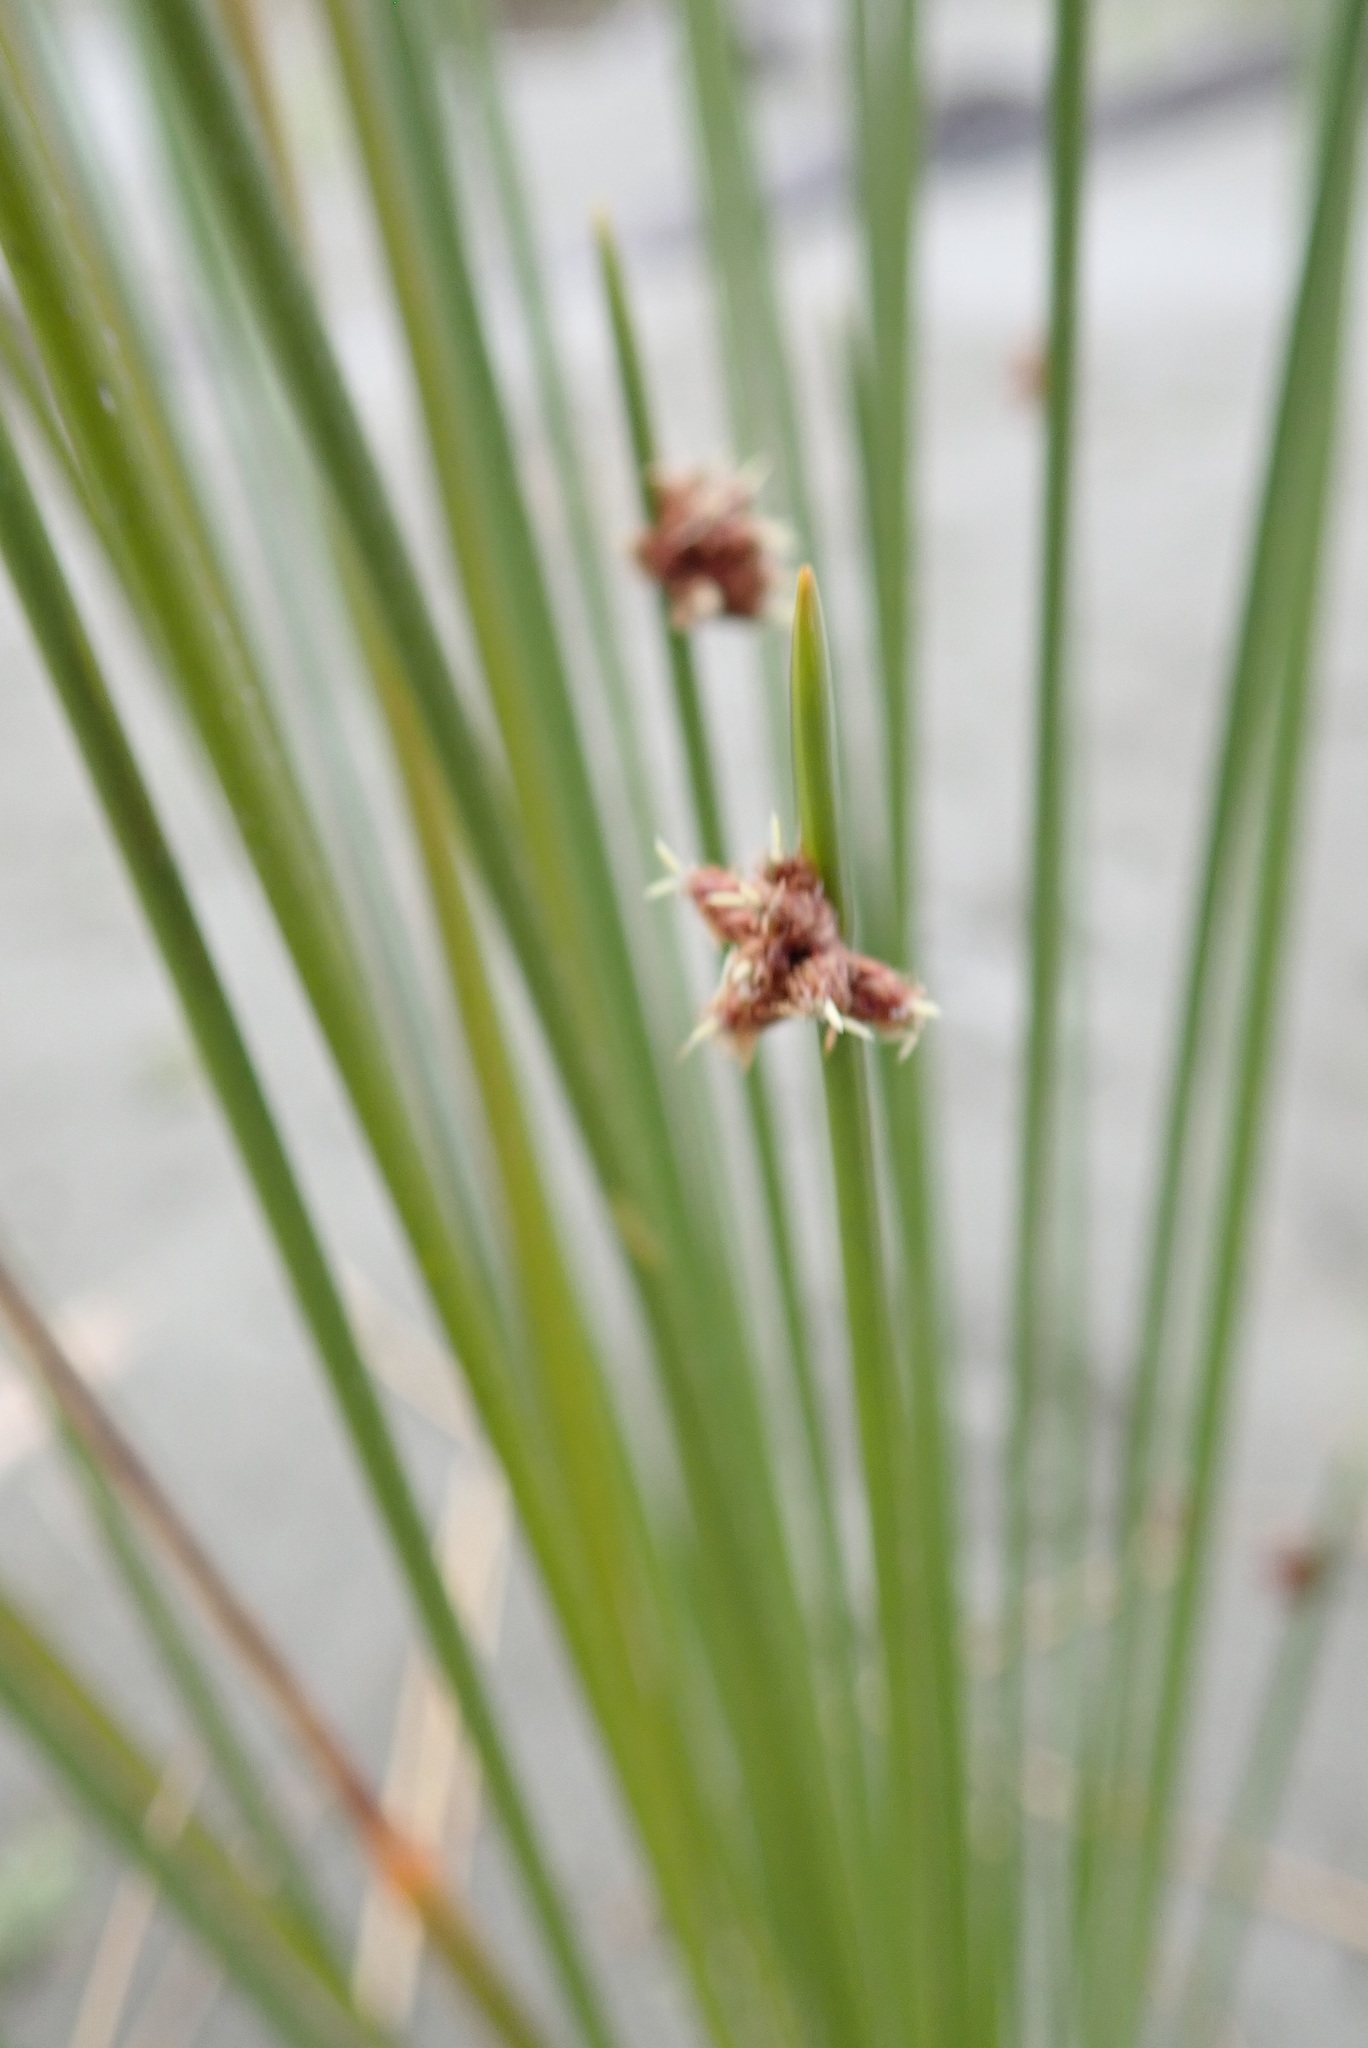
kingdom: Plantae
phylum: Tracheophyta
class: Liliopsida
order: Poales
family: Cyperaceae
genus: Ficinia
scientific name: Ficinia nodosa
